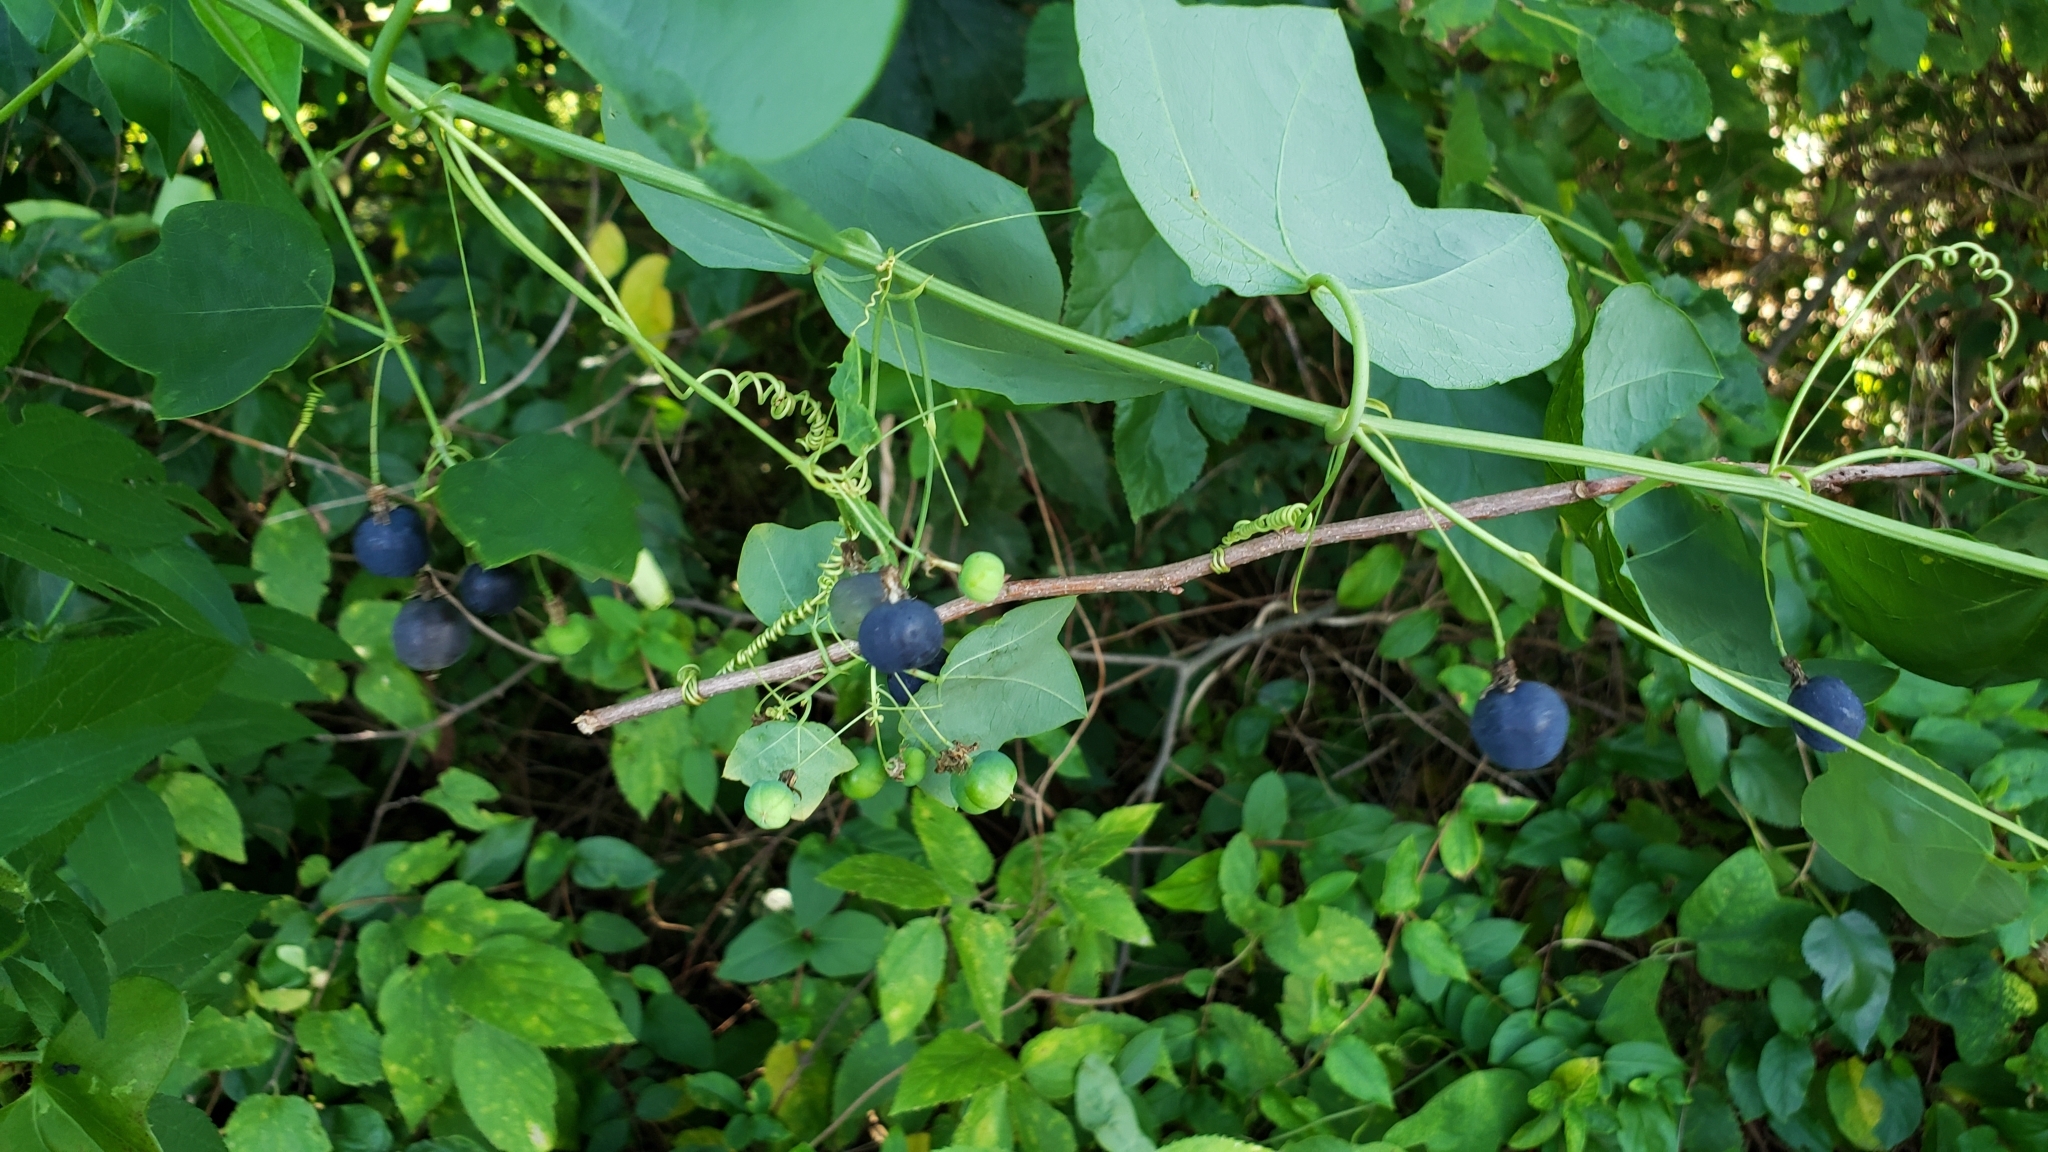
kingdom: Plantae
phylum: Tracheophyta
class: Magnoliopsida
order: Malpighiales
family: Passifloraceae
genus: Passiflora
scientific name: Passiflora lutea
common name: Yellow passionflower
